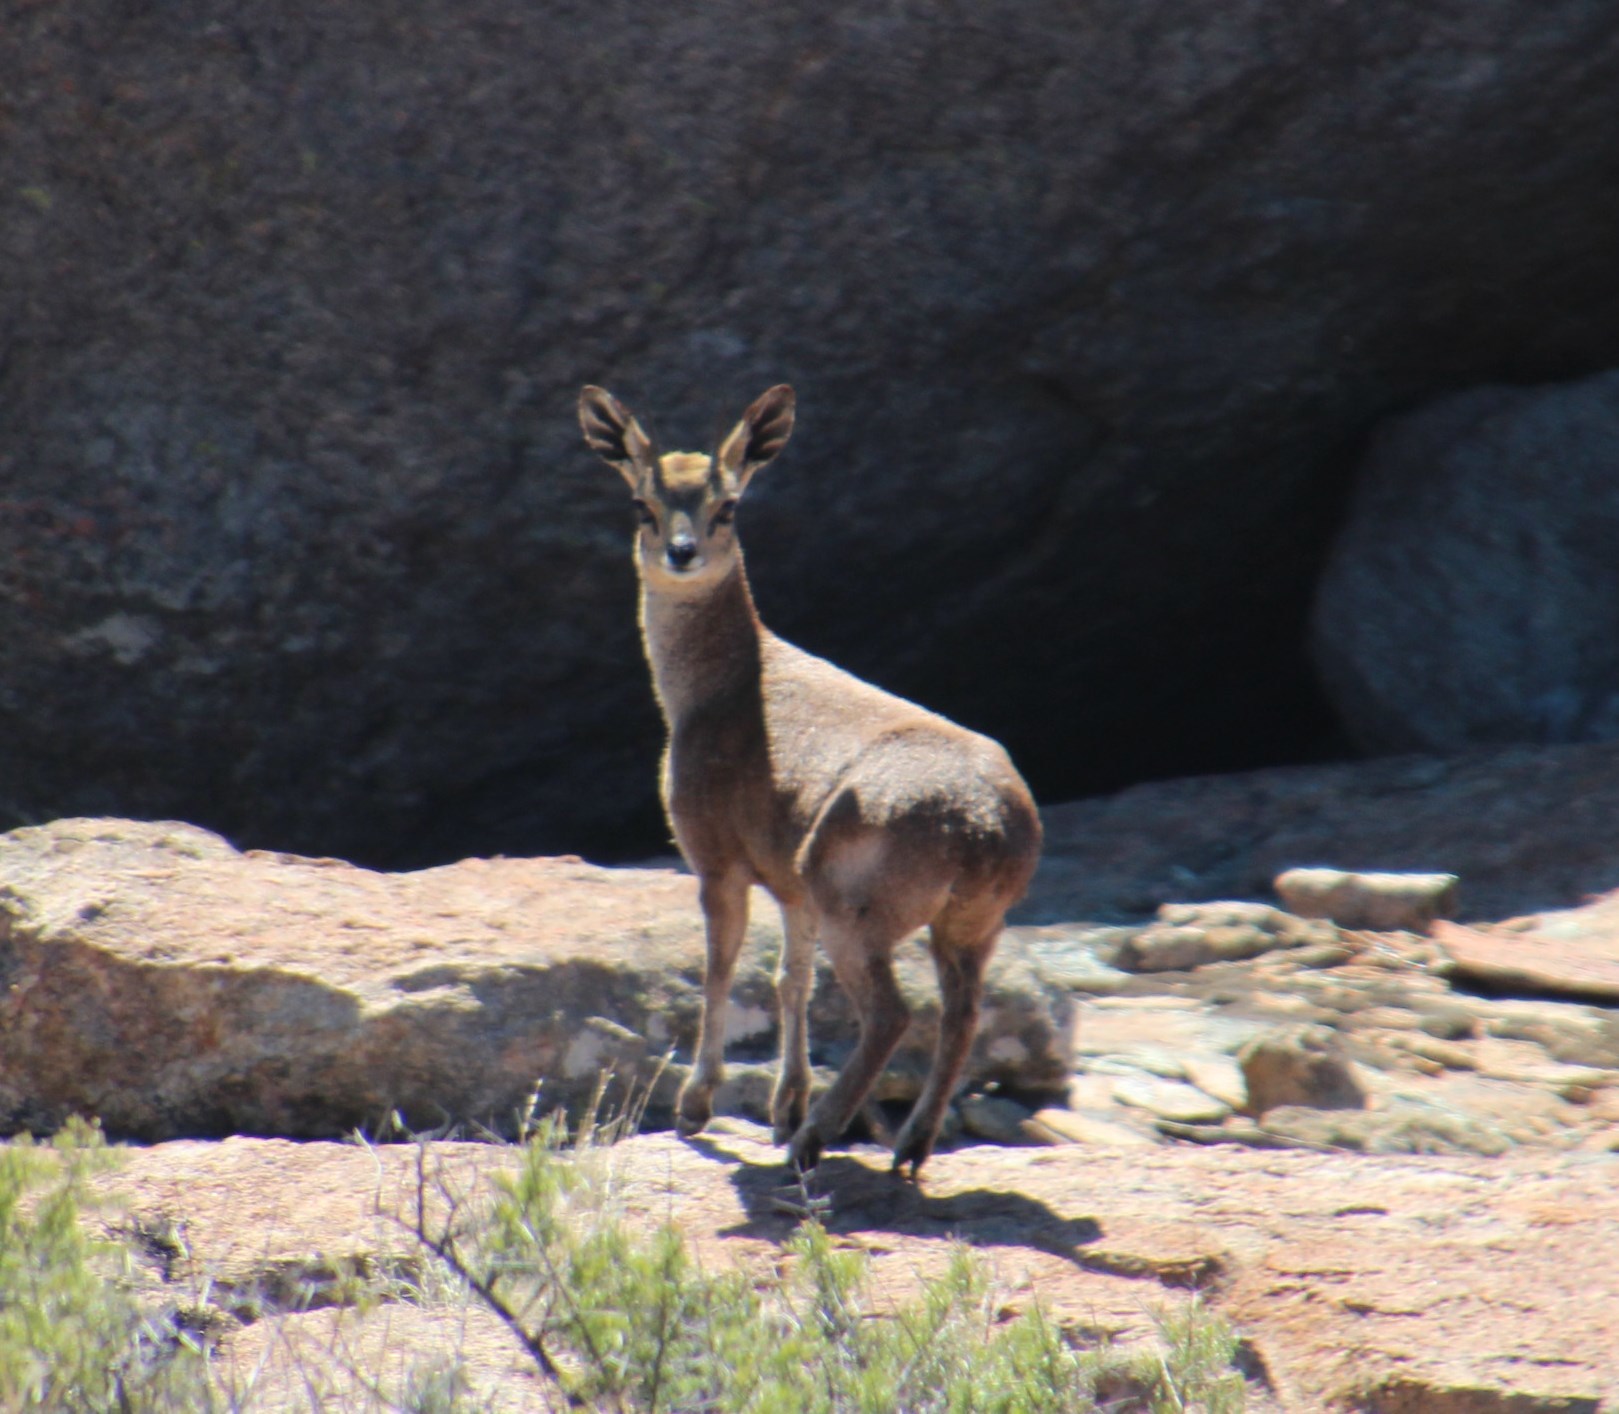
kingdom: Animalia
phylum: Chordata
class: Mammalia
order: Artiodactyla
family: Bovidae
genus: Oreotragus
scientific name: Oreotragus oreotragus
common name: Klipspringer
